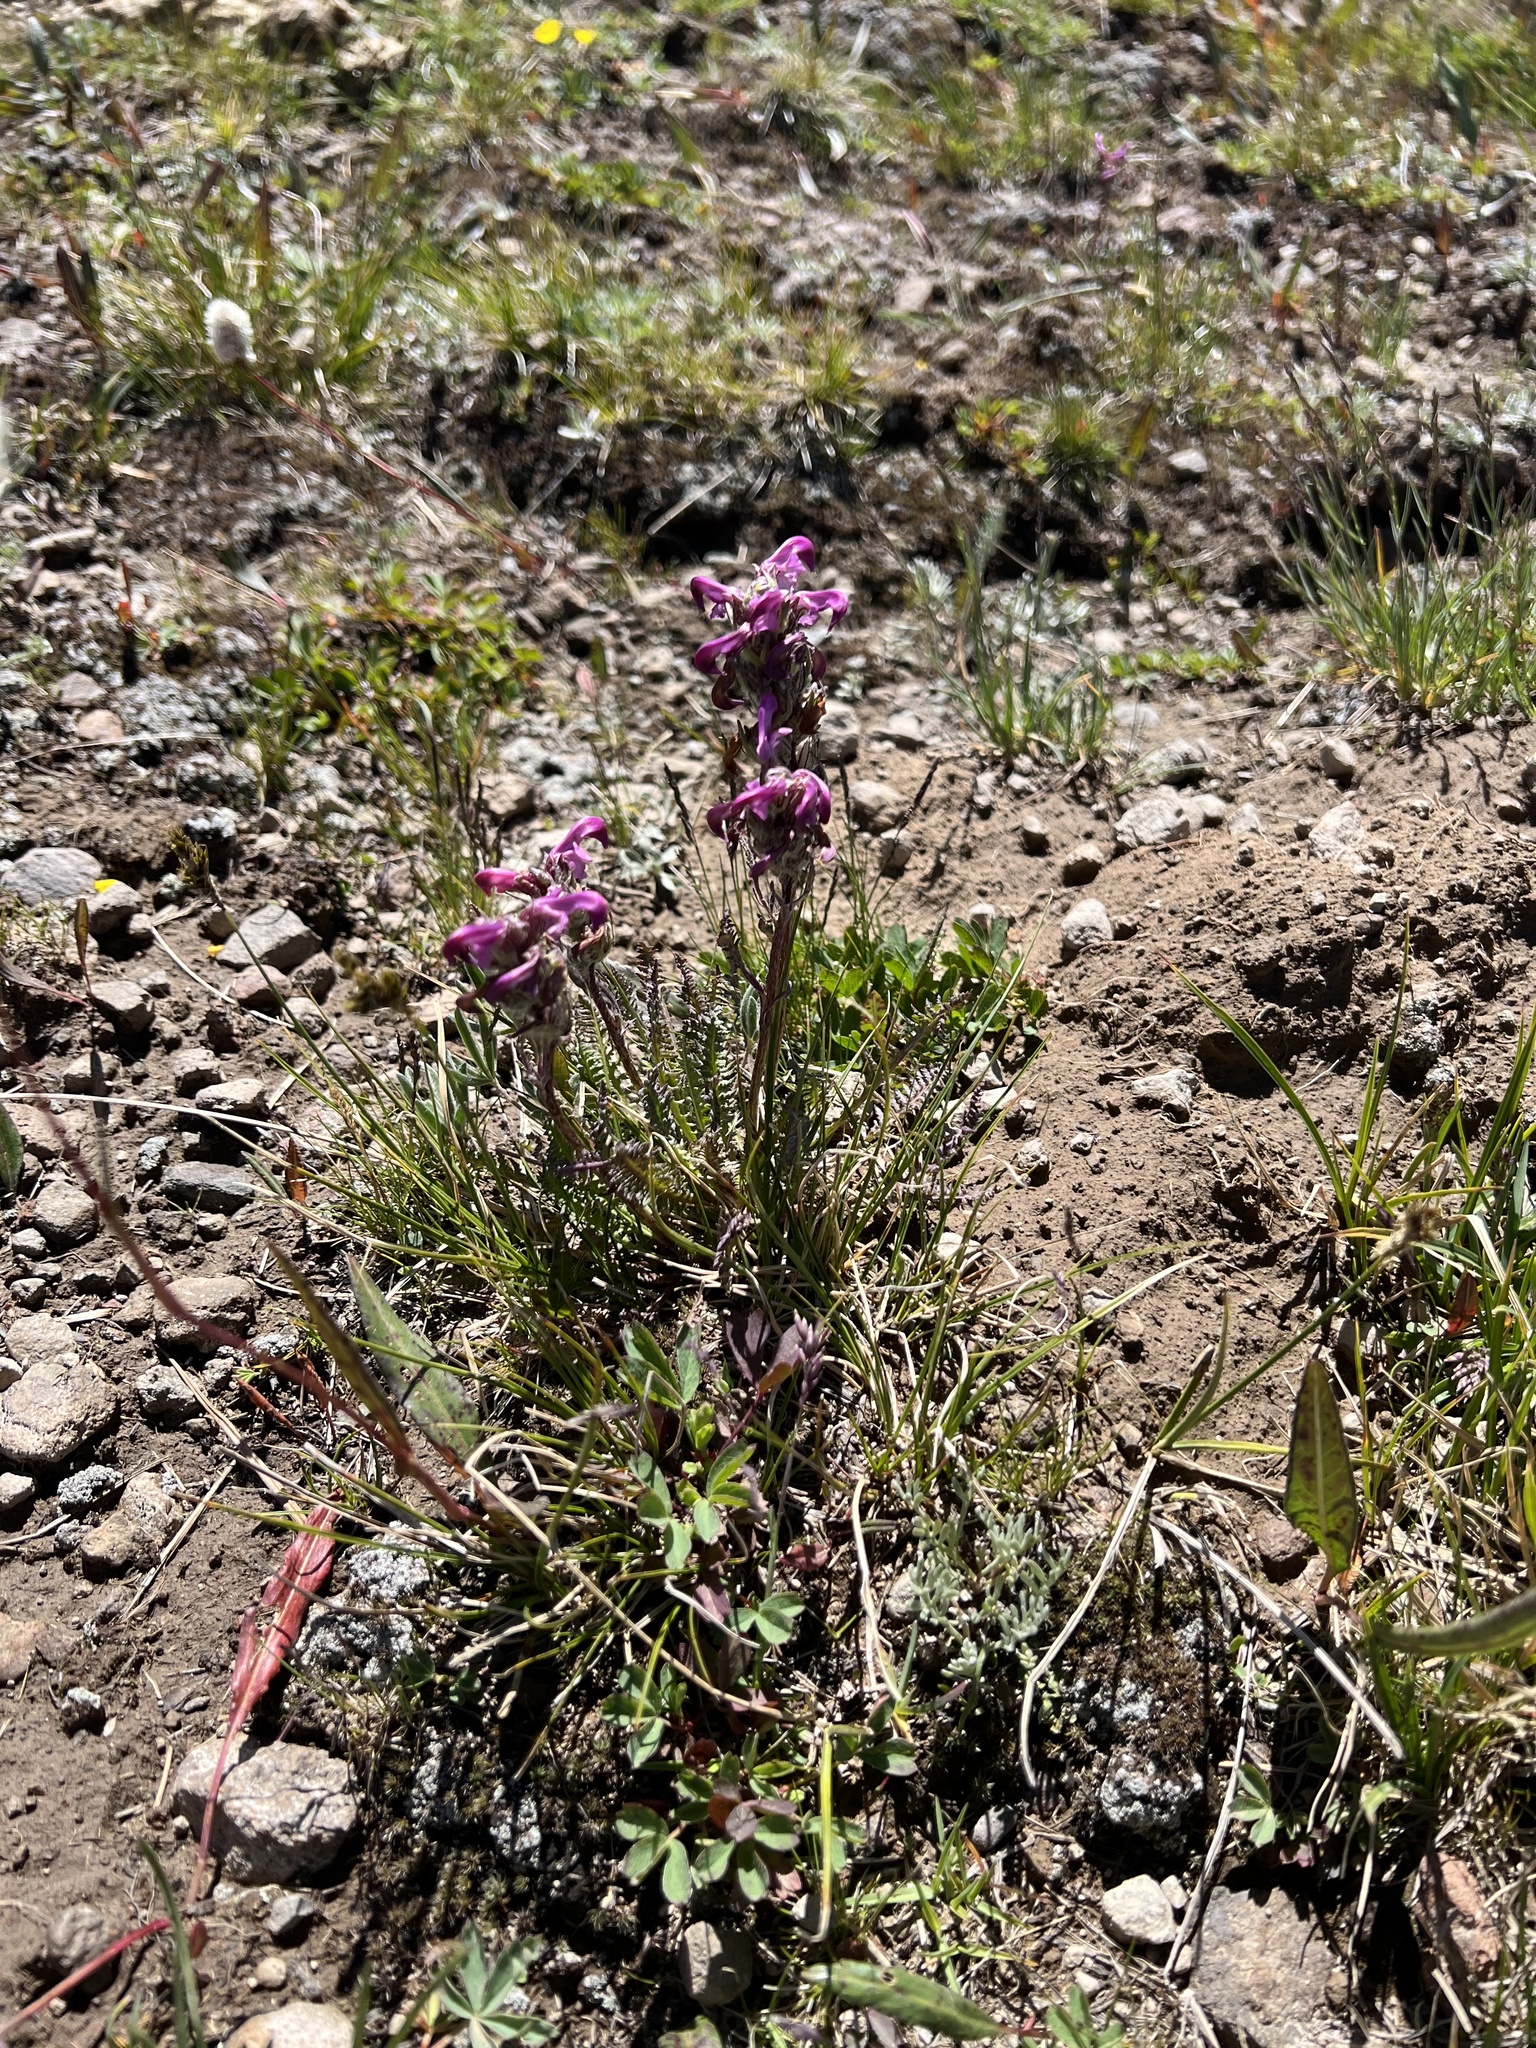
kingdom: Plantae
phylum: Tracheophyta
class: Magnoliopsida
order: Lamiales
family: Orobanchaceae
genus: Pedicularis
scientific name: Pedicularis parryi
